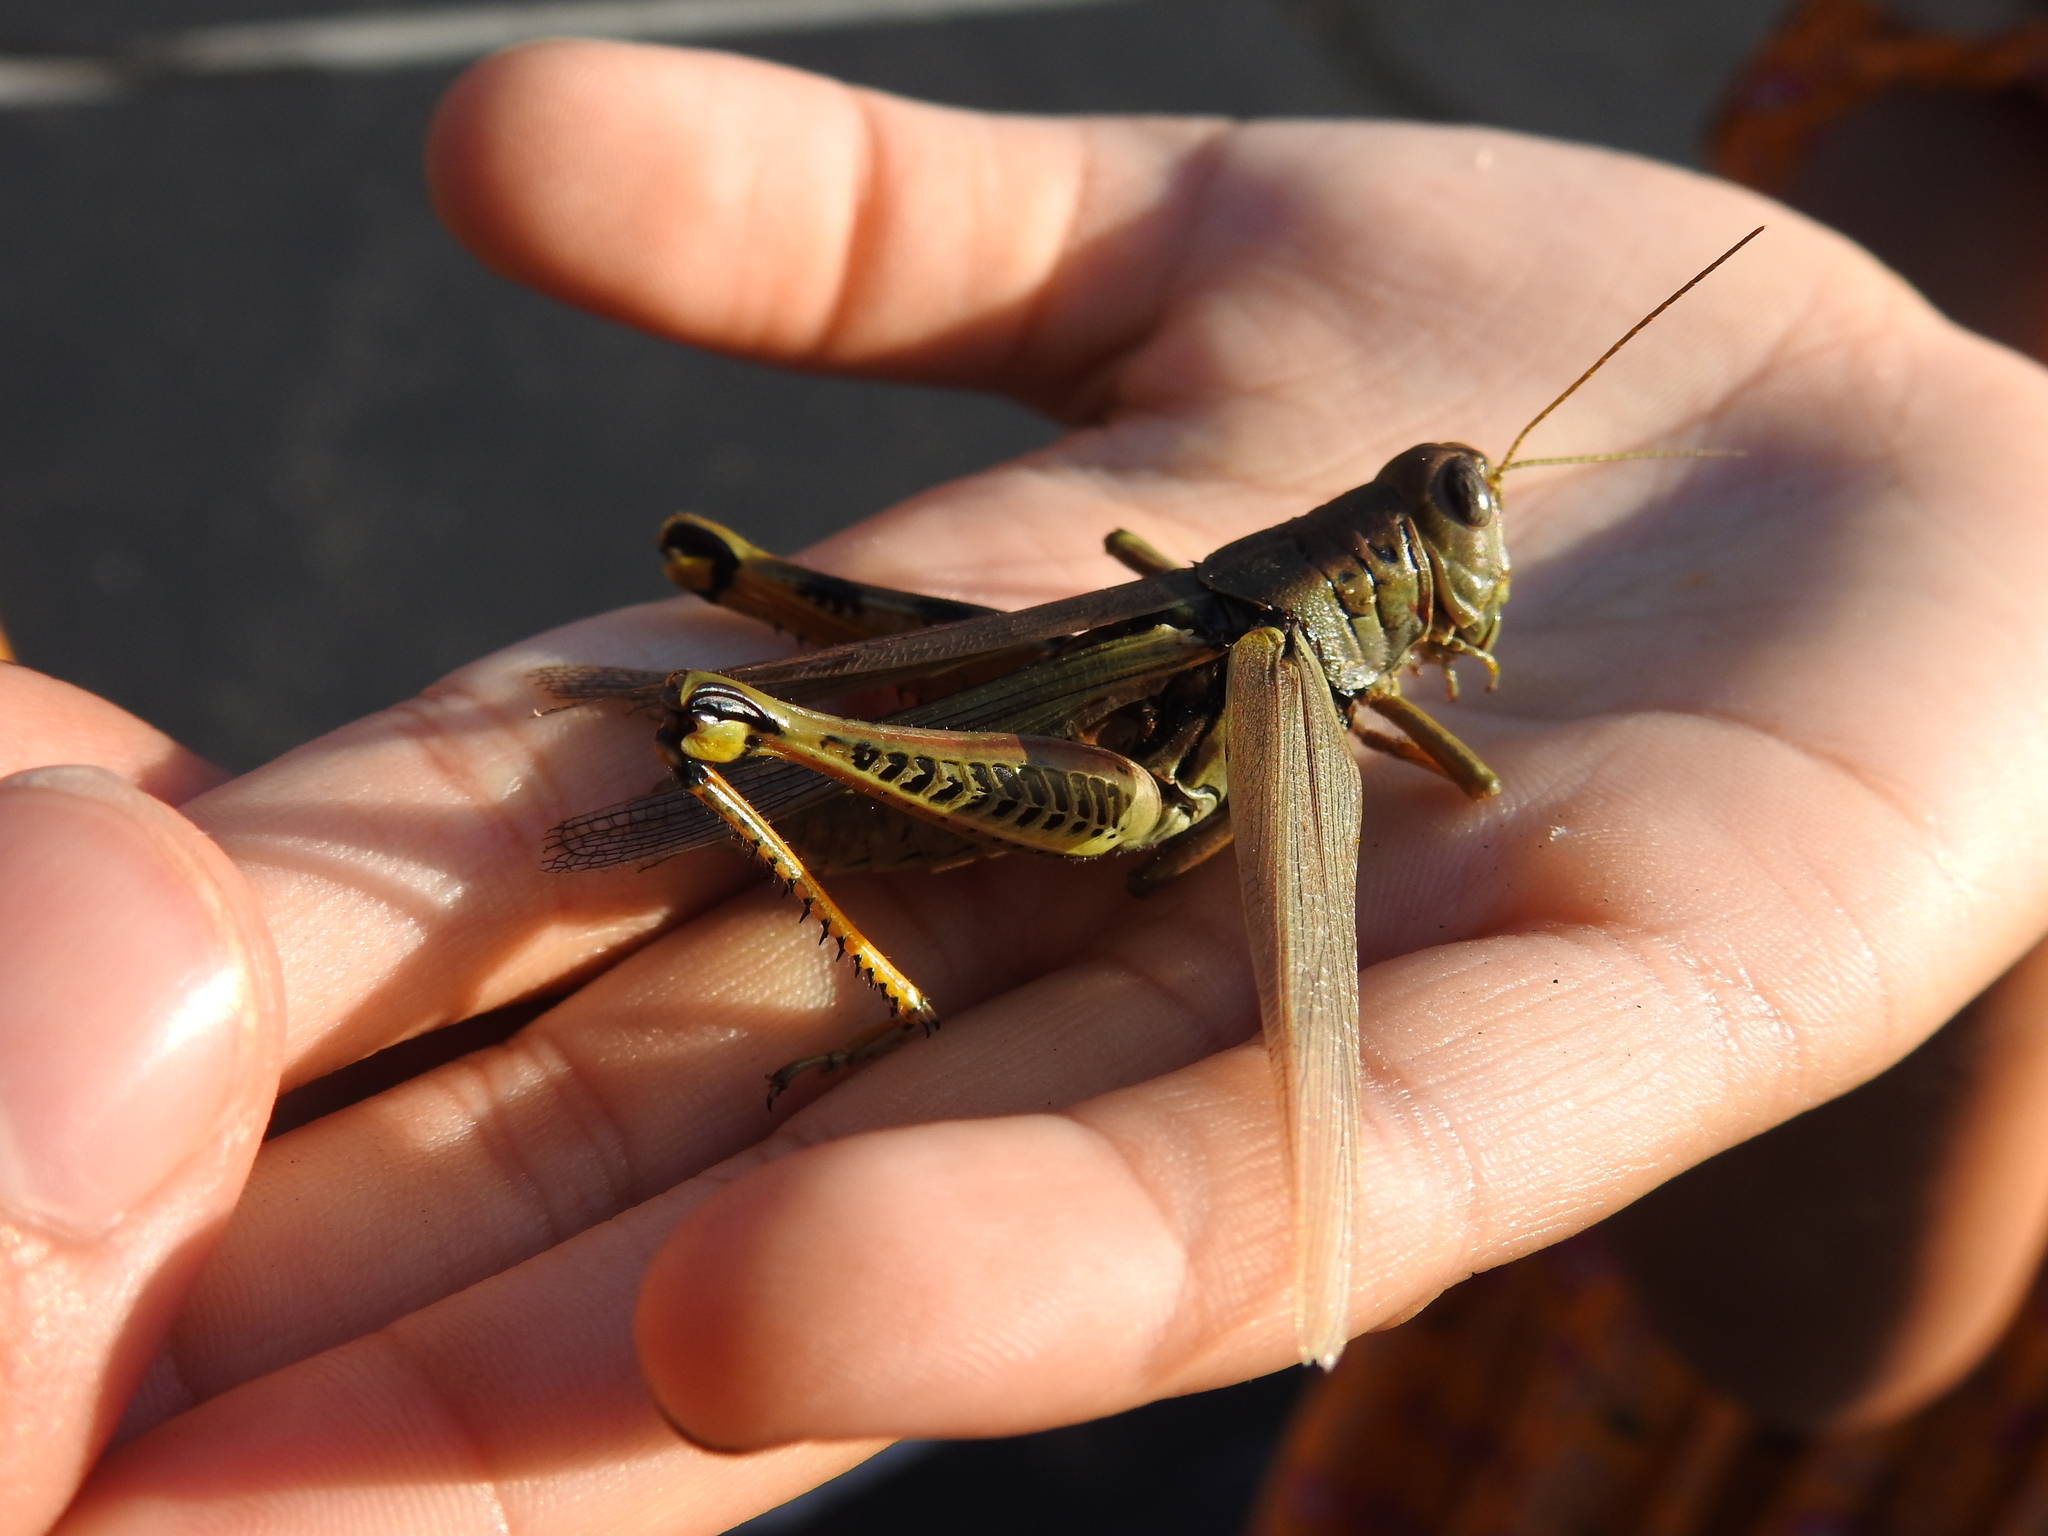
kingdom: Animalia
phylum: Arthropoda
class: Insecta
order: Orthoptera
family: Acrididae
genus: Melanoplus
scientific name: Melanoplus differentialis
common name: Differential grasshopper
